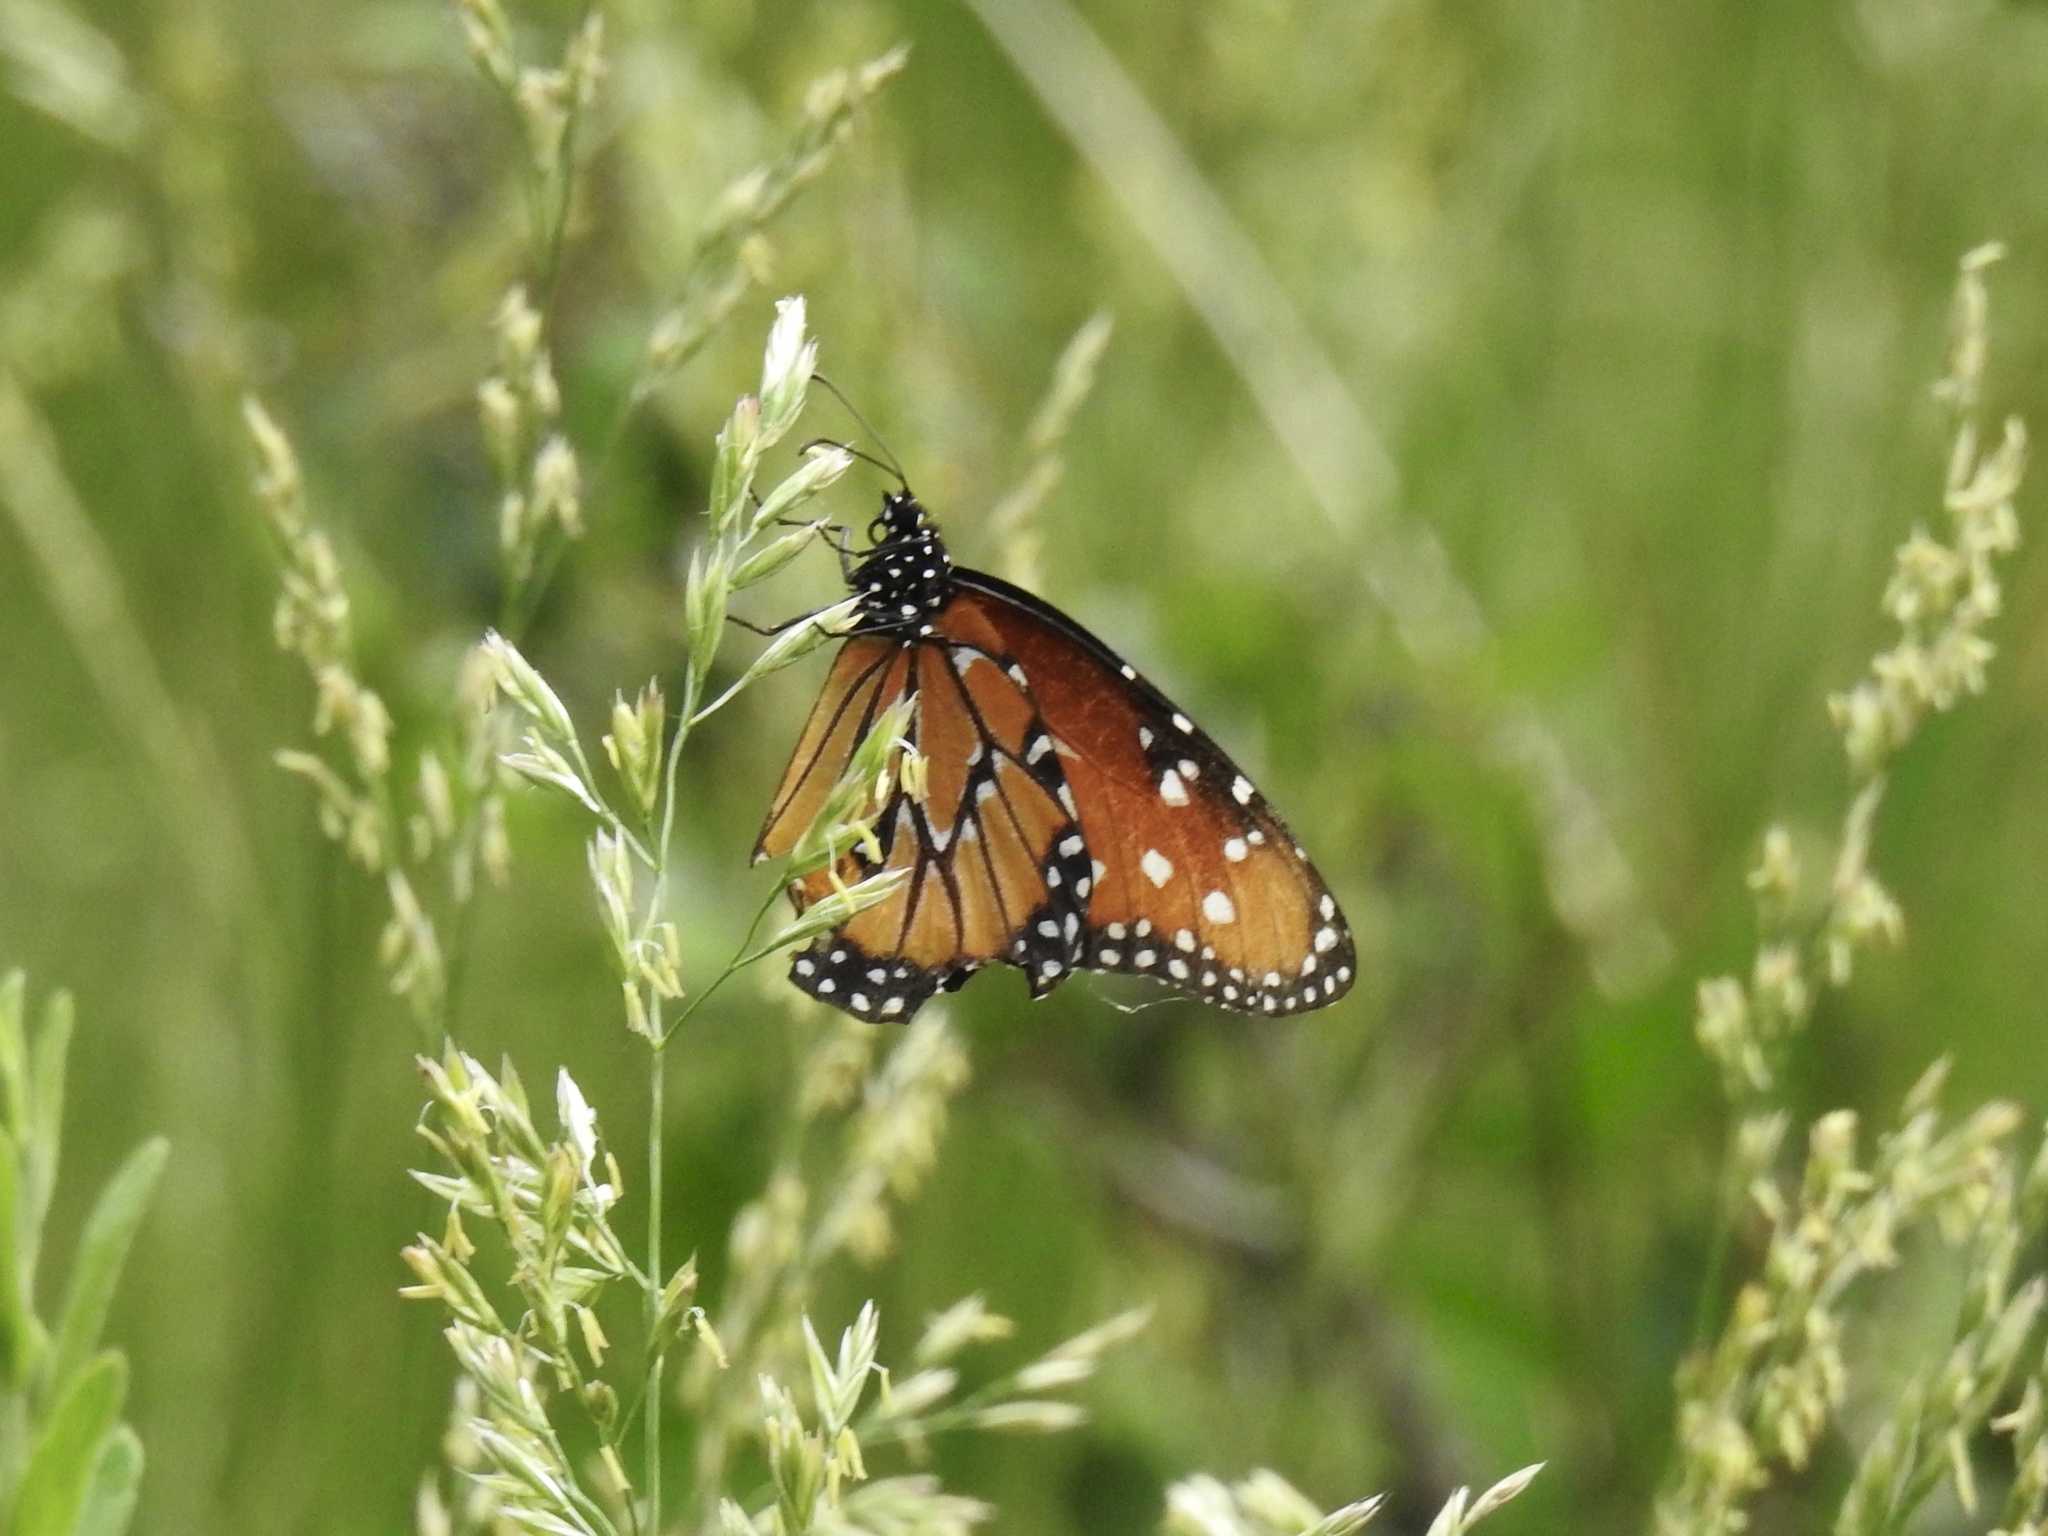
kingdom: Animalia
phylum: Arthropoda
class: Insecta
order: Lepidoptera
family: Nymphalidae
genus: Danaus
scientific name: Danaus gilippus
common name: Queen
